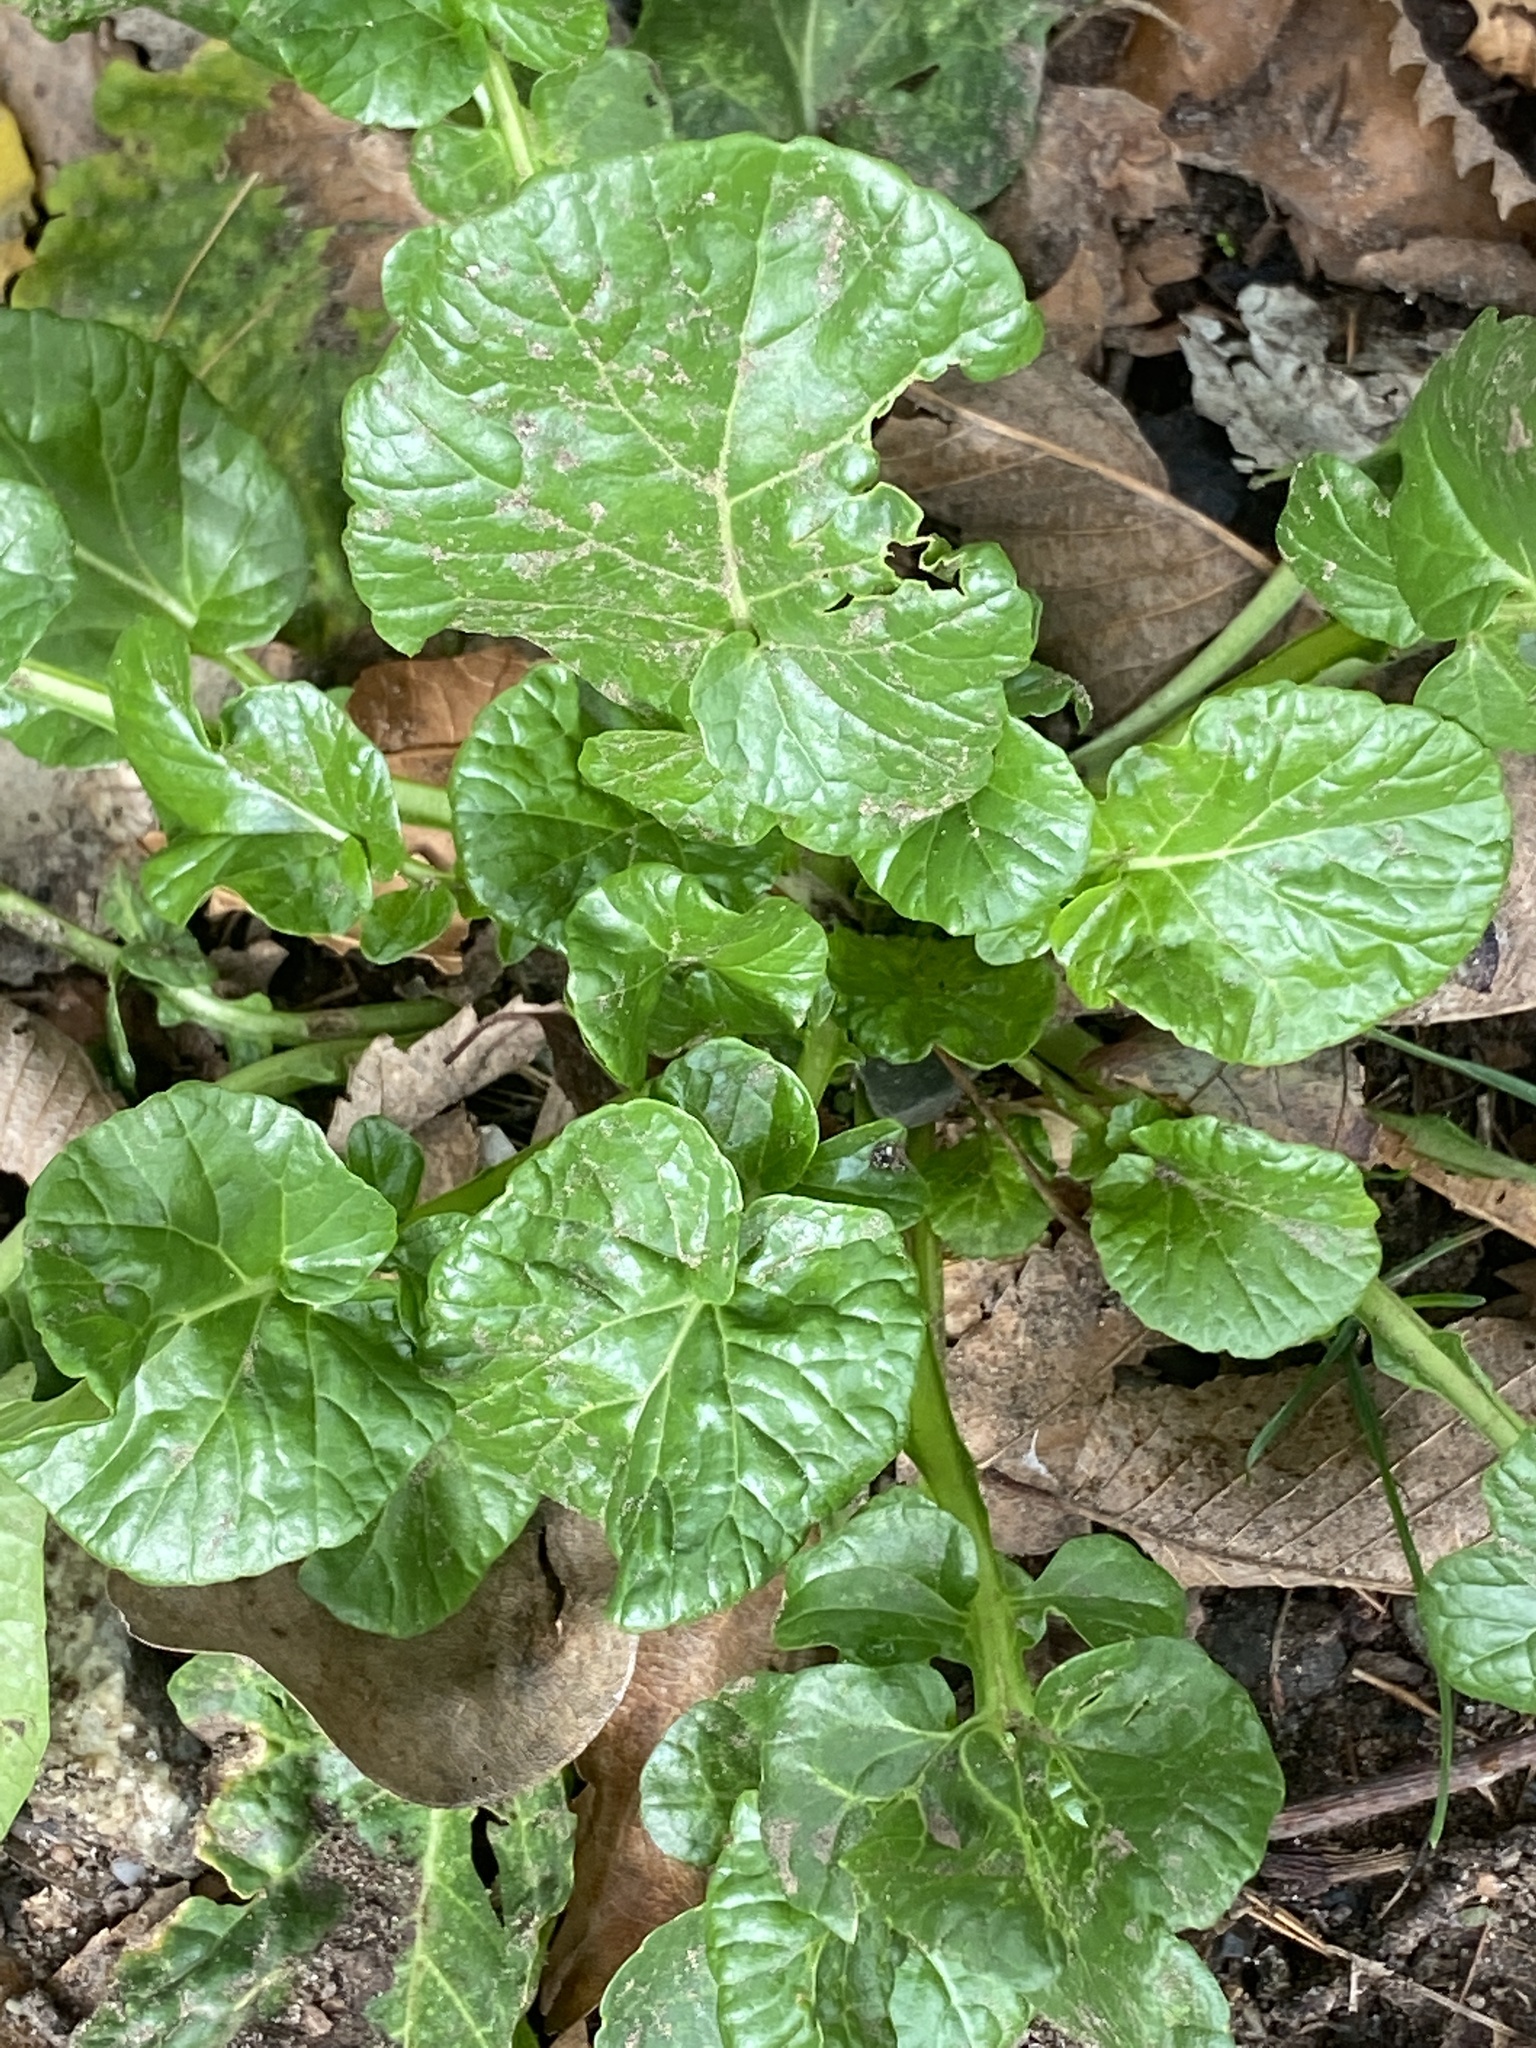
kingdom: Plantae
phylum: Tracheophyta
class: Magnoliopsida
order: Brassicales
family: Brassicaceae
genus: Barbarea
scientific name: Barbarea vulgaris
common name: Cressy-greens
